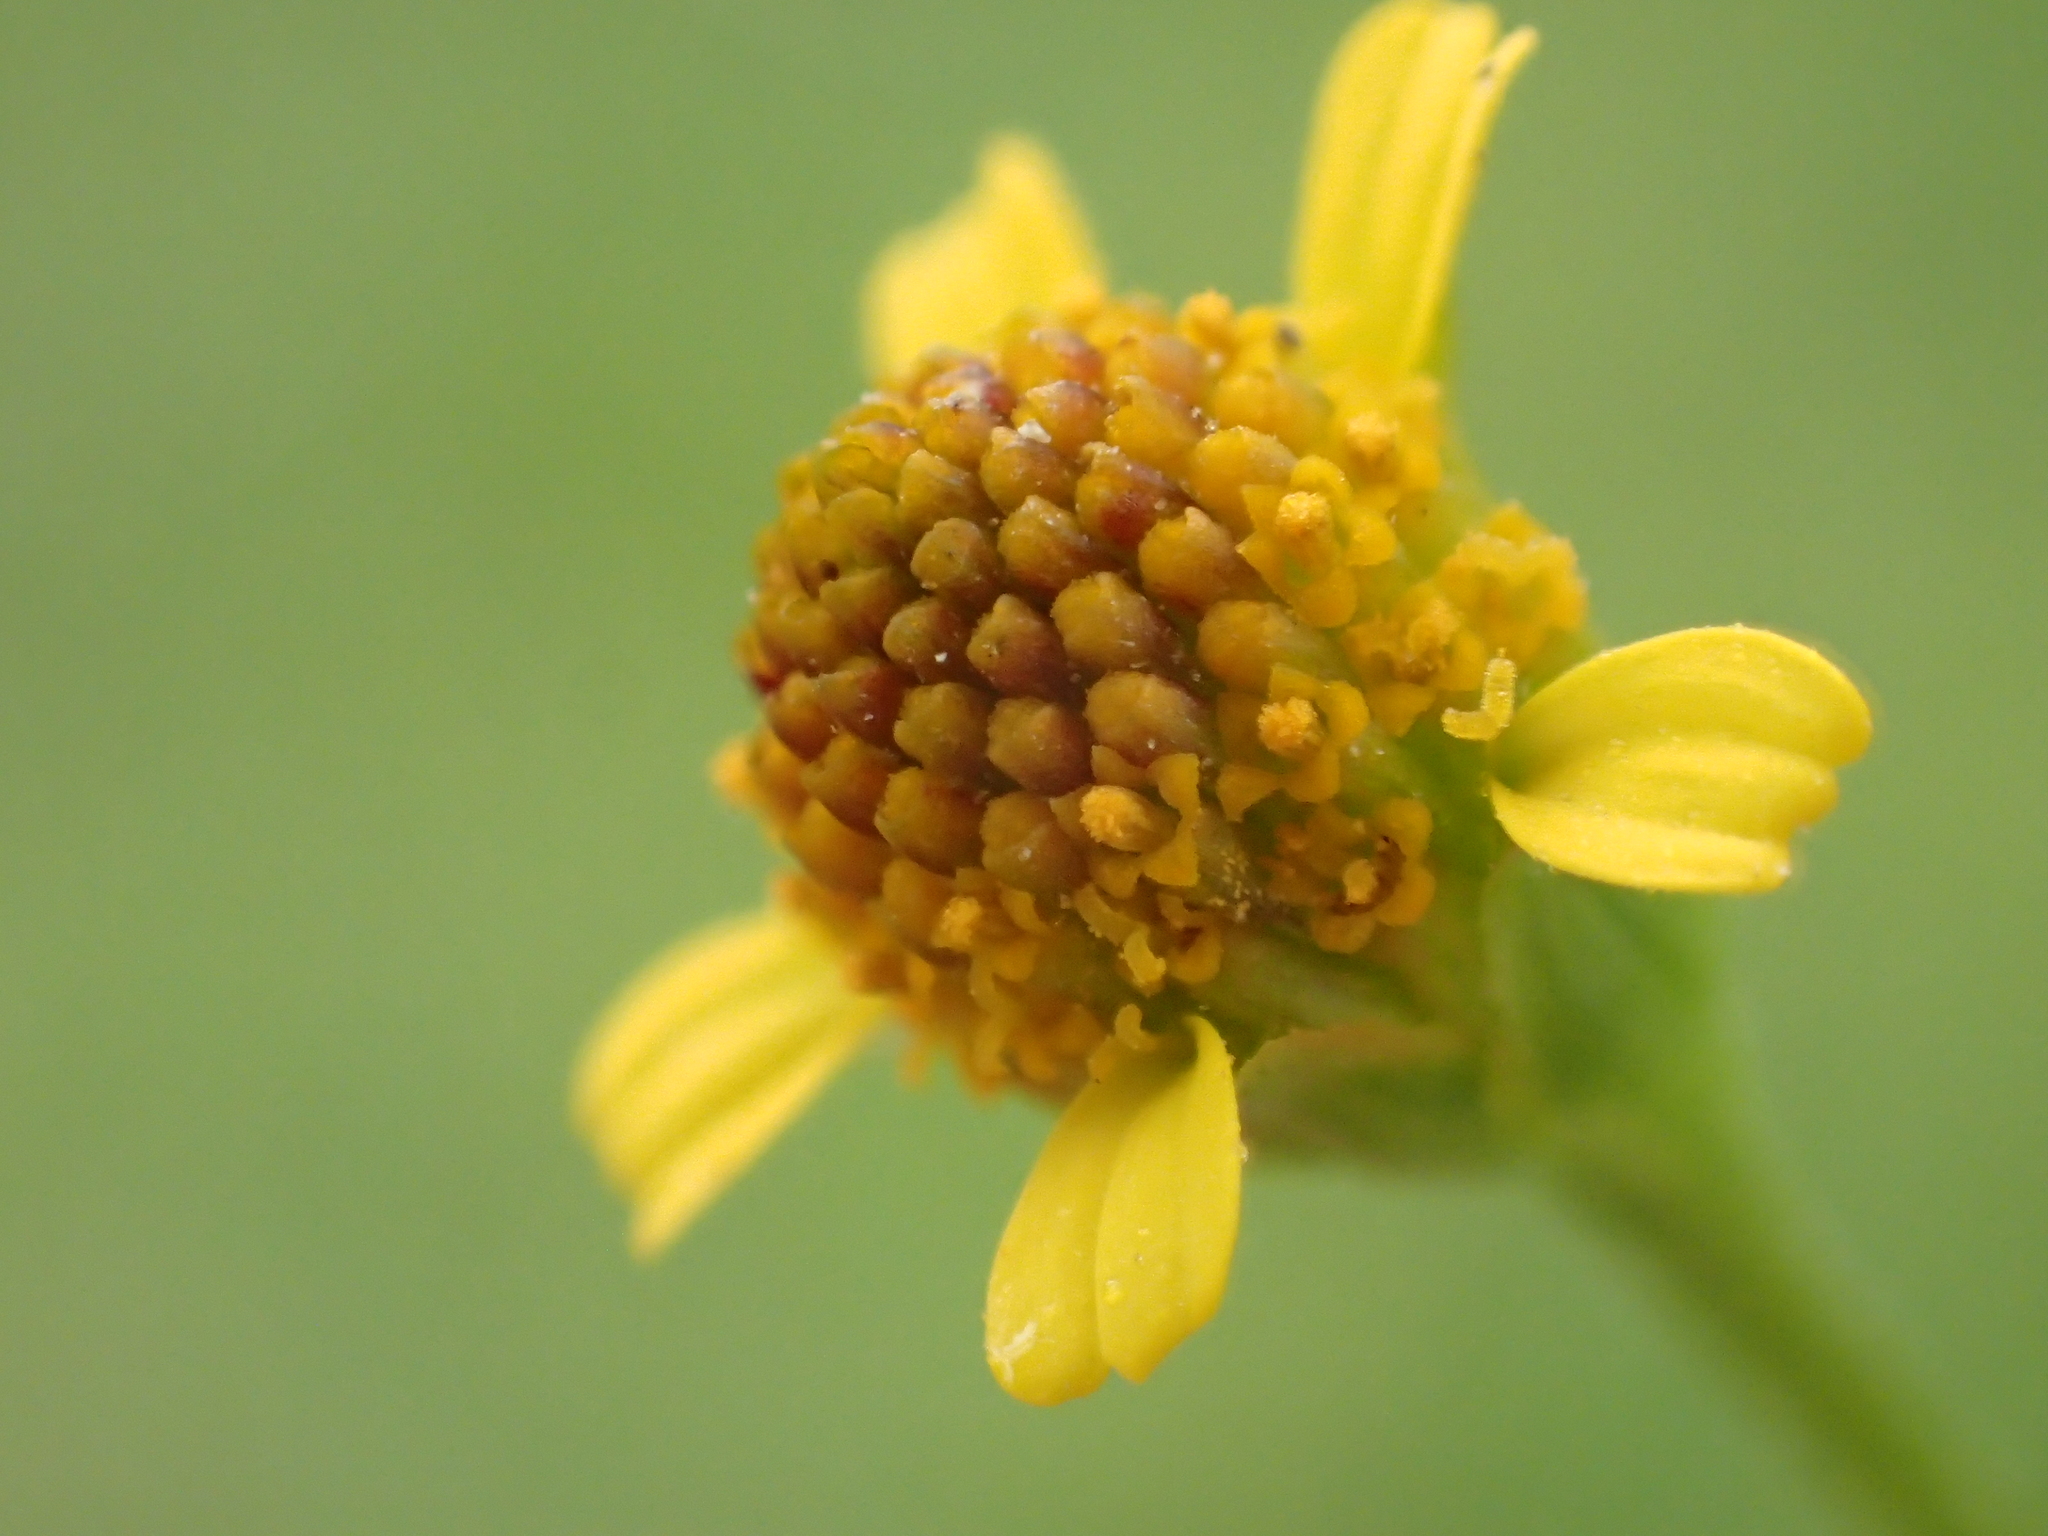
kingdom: Plantae
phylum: Tracheophyta
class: Magnoliopsida
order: Asterales
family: Asteraceae
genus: Acmella
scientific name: Acmella uliginosa
